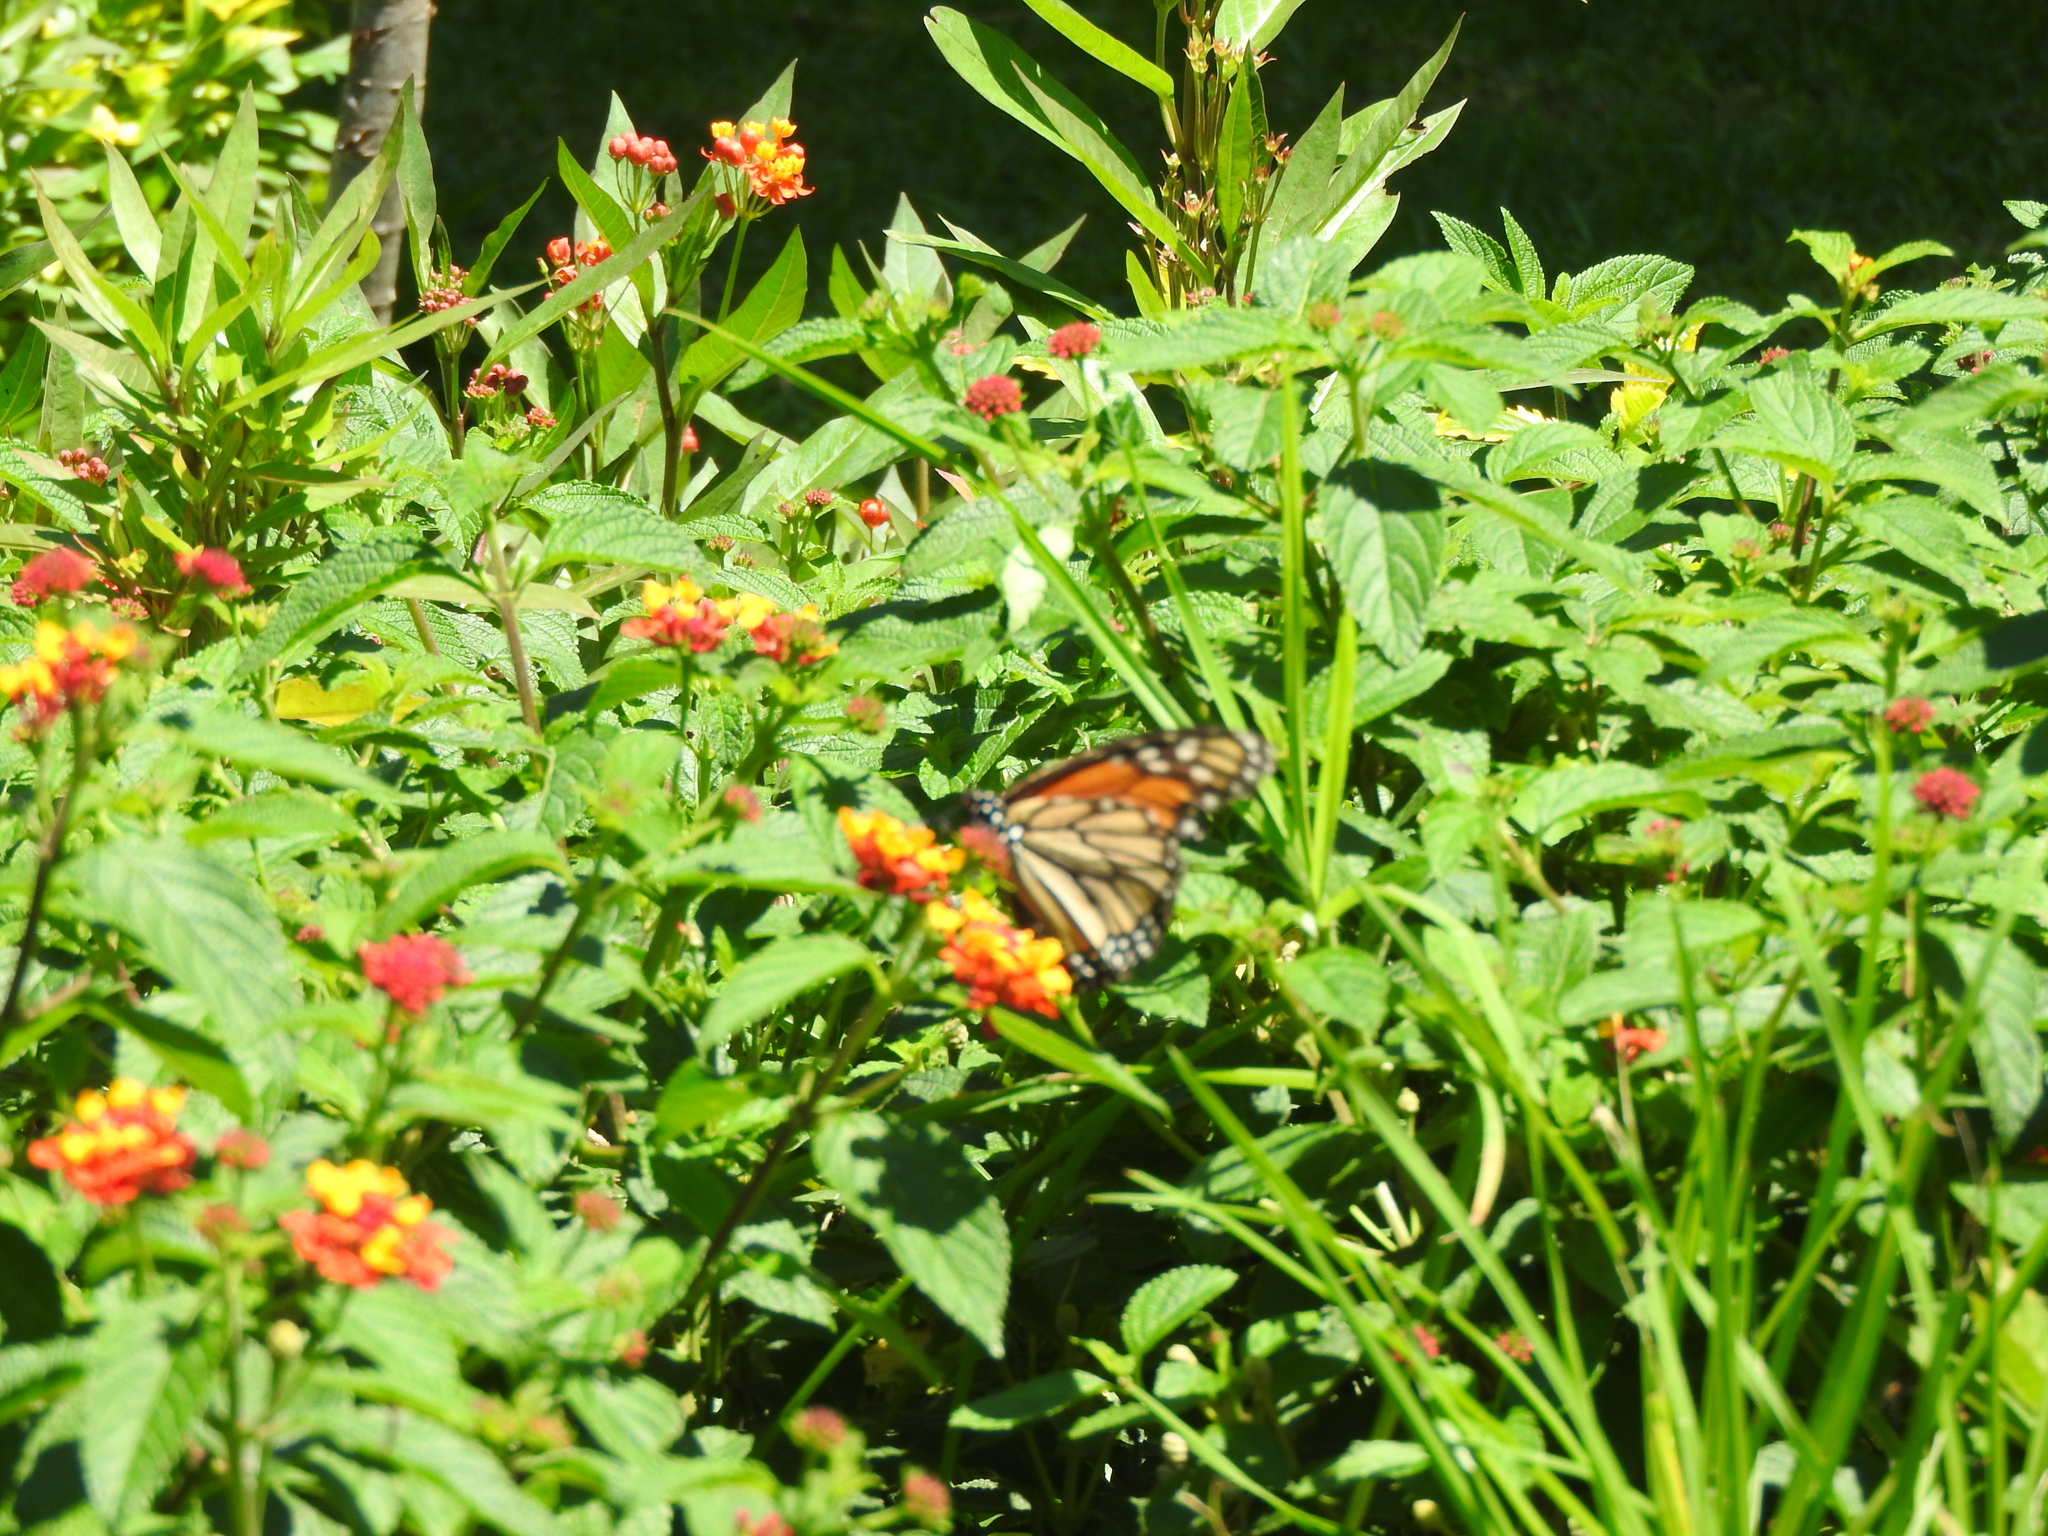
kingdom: Animalia
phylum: Arthropoda
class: Insecta
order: Lepidoptera
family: Nymphalidae
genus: Danaus
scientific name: Danaus plexippus
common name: Monarch
